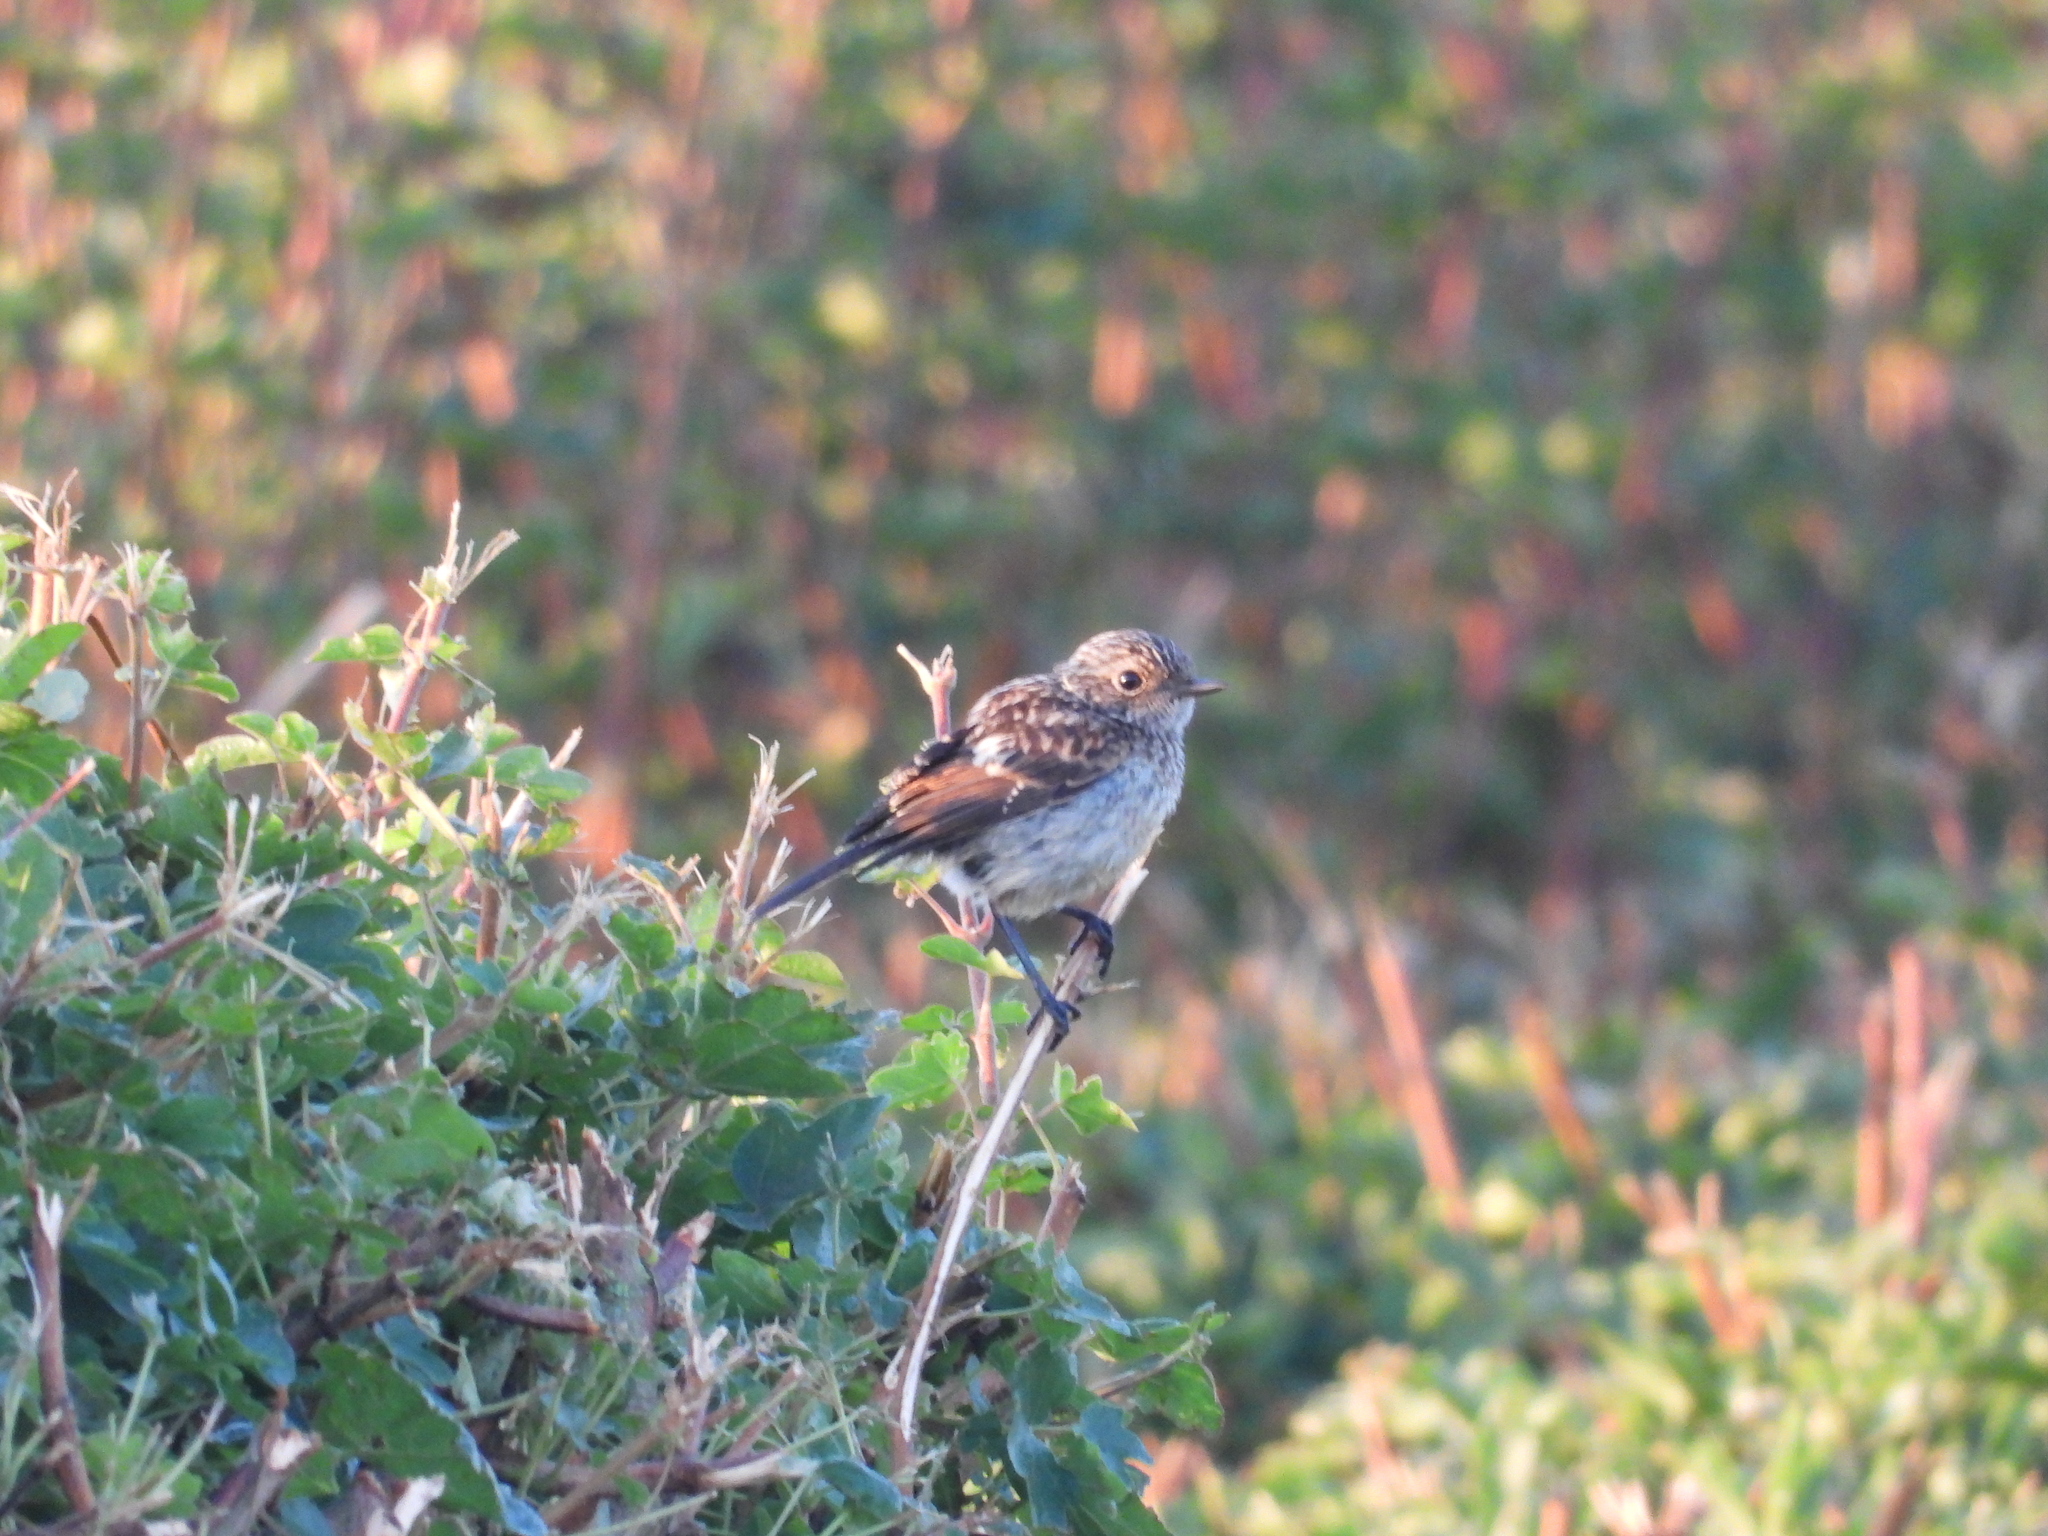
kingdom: Animalia
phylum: Chordata
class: Aves
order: Passeriformes
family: Muscicapidae
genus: Saxicola
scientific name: Saxicola rubicola
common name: European stonechat
